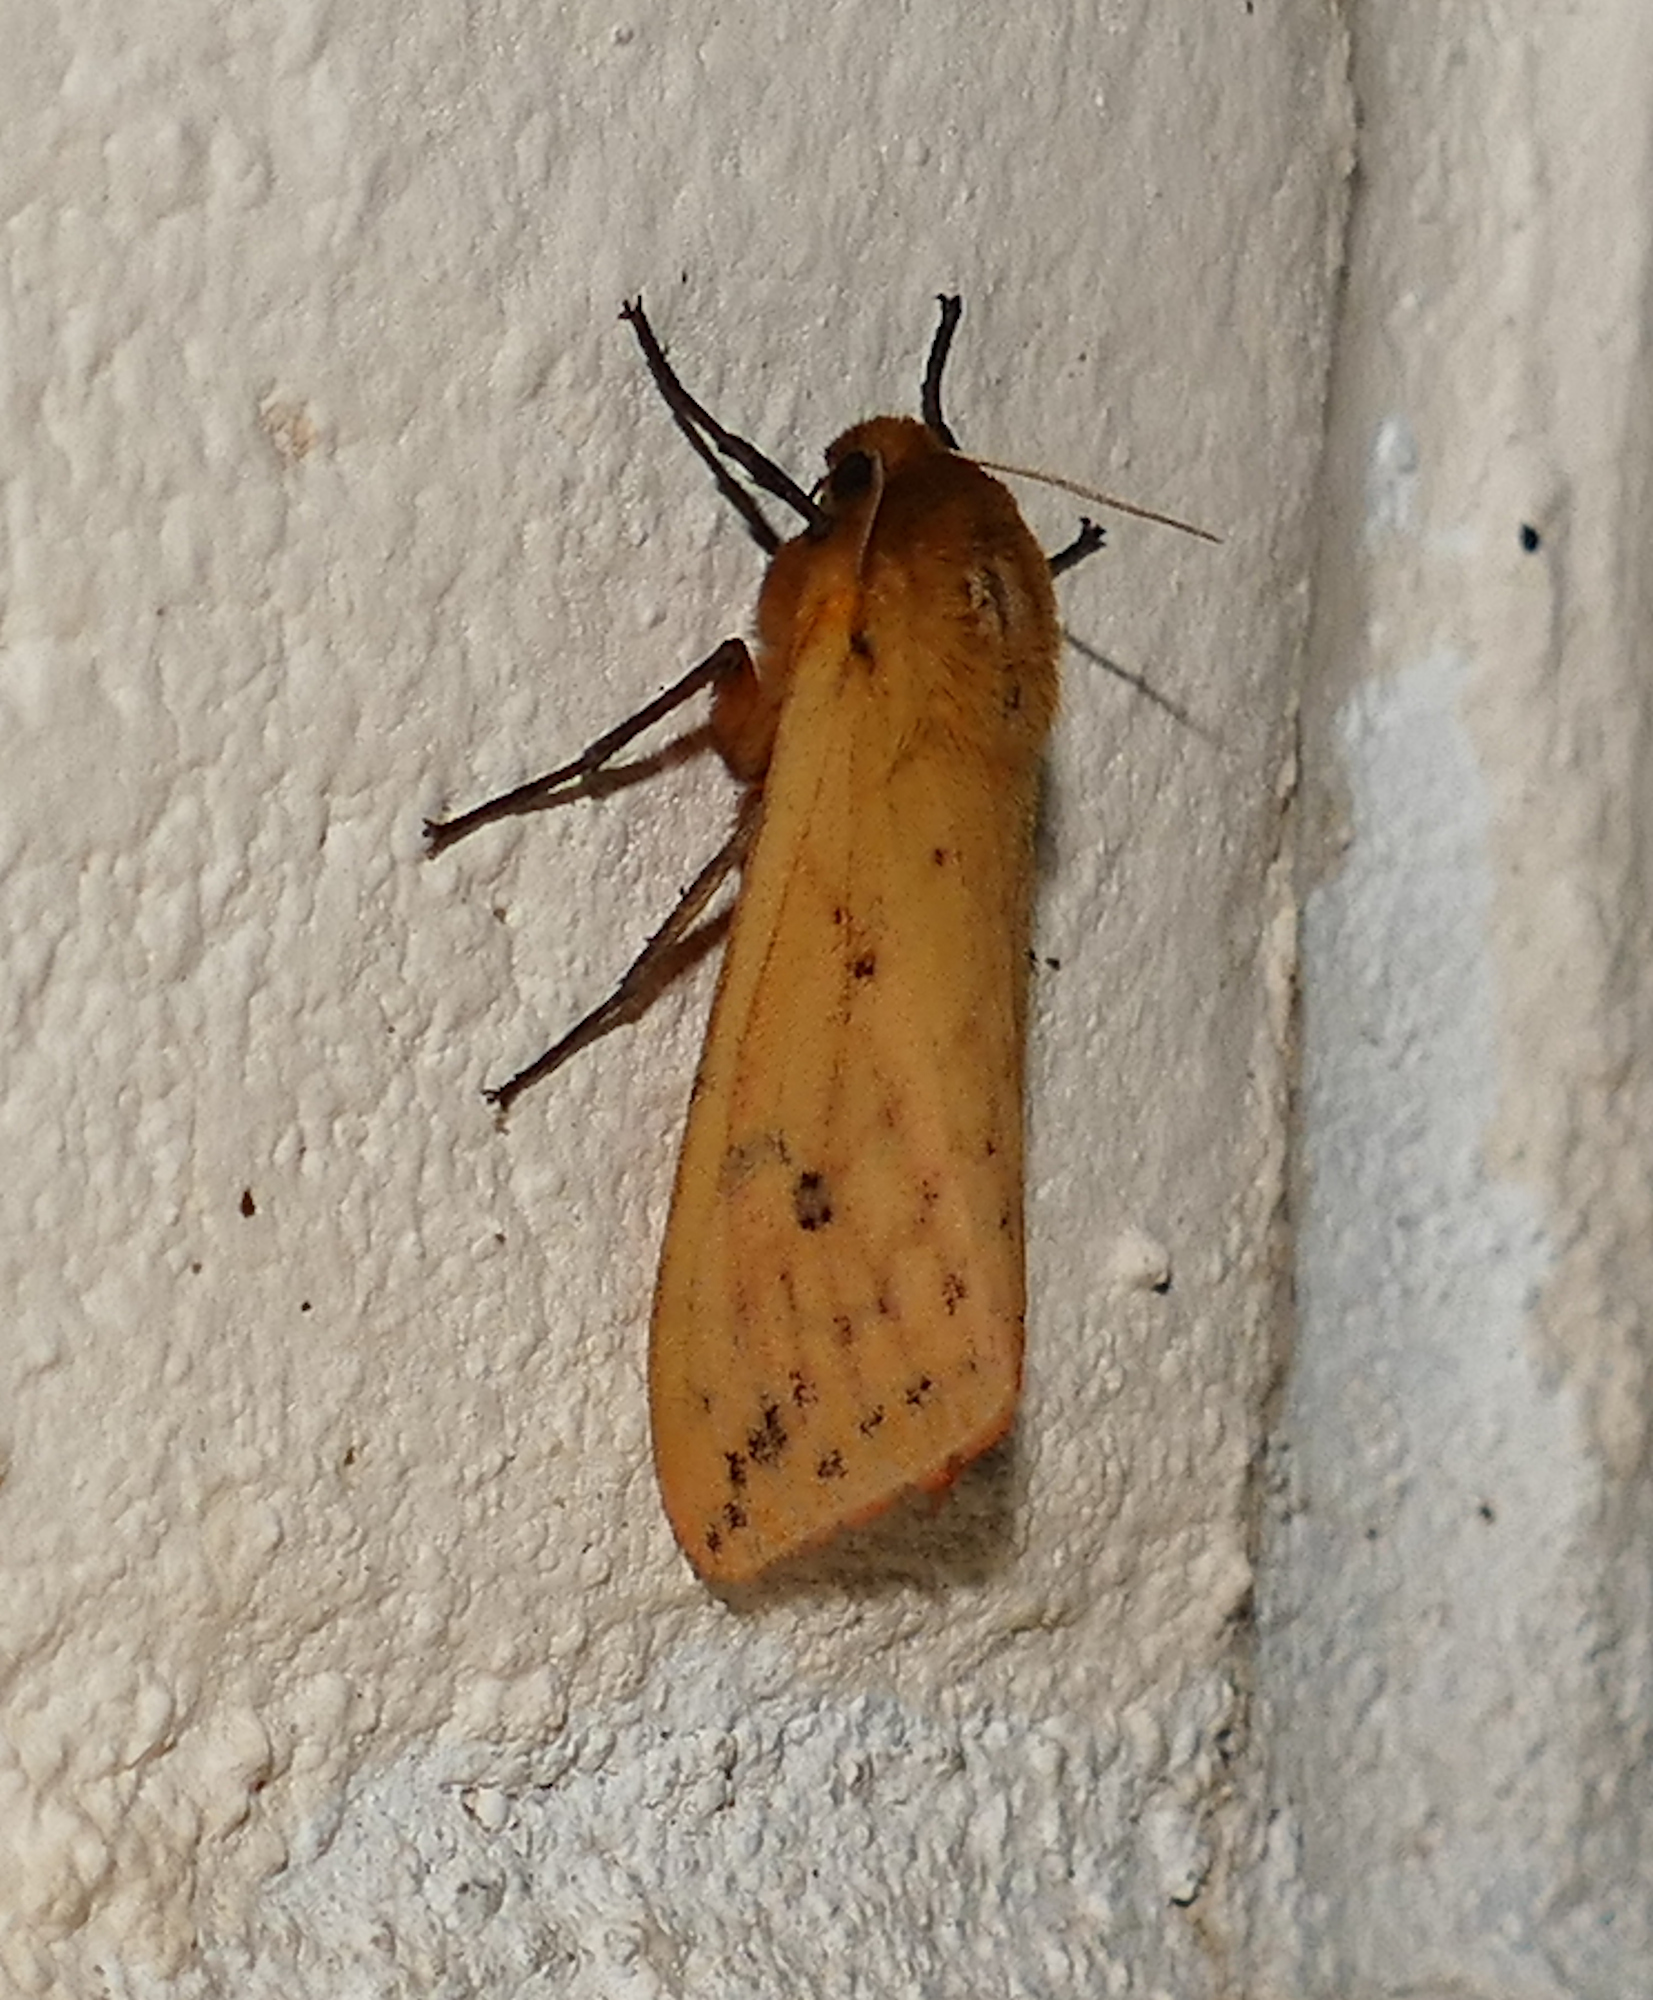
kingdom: Animalia
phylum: Arthropoda
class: Insecta
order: Lepidoptera
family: Erebidae
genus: Pyrrharctia
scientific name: Pyrrharctia isabella
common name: Isabella tiger moth
